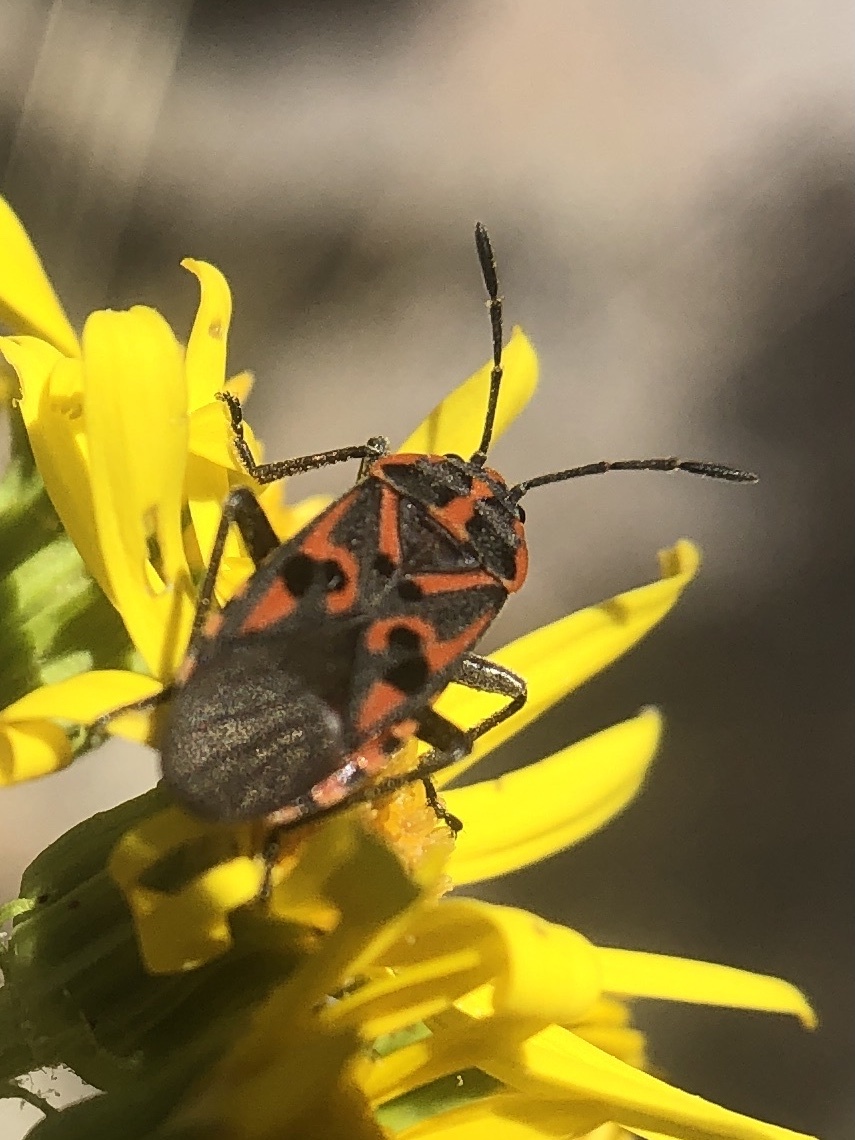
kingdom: Animalia
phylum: Arthropoda
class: Insecta
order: Hemiptera
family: Lygaeidae
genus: Spilostethus
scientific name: Spilostethus saxatilis
